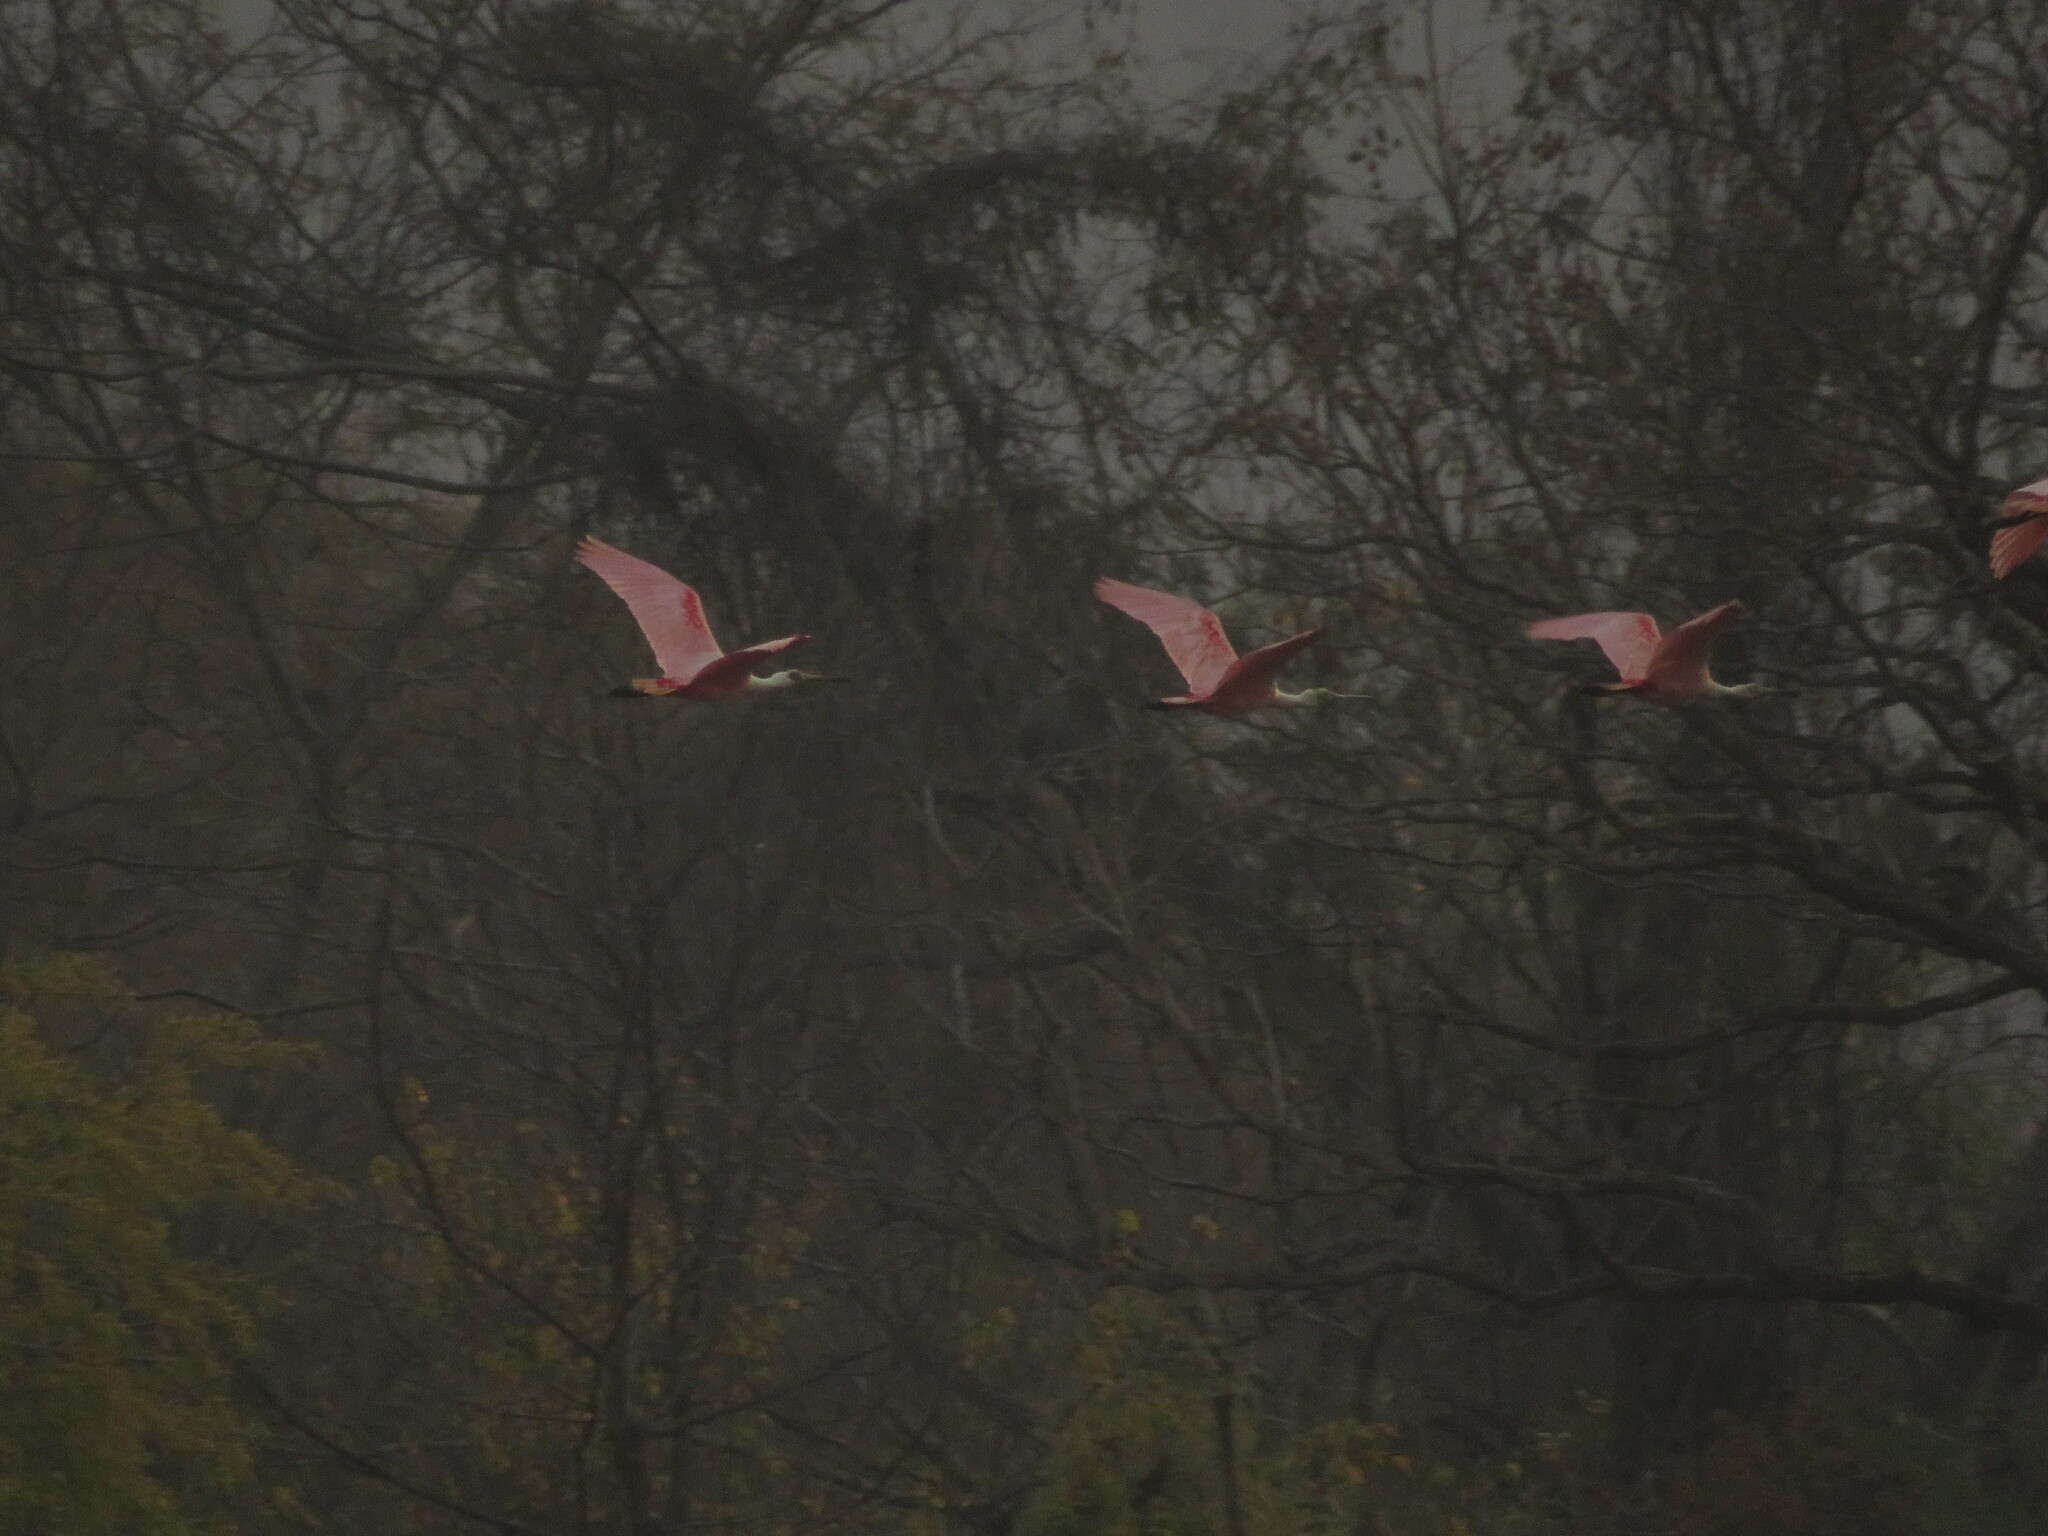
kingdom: Animalia
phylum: Chordata
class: Aves
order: Pelecaniformes
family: Threskiornithidae
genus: Platalea
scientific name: Platalea ajaja
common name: Roseate spoonbill
